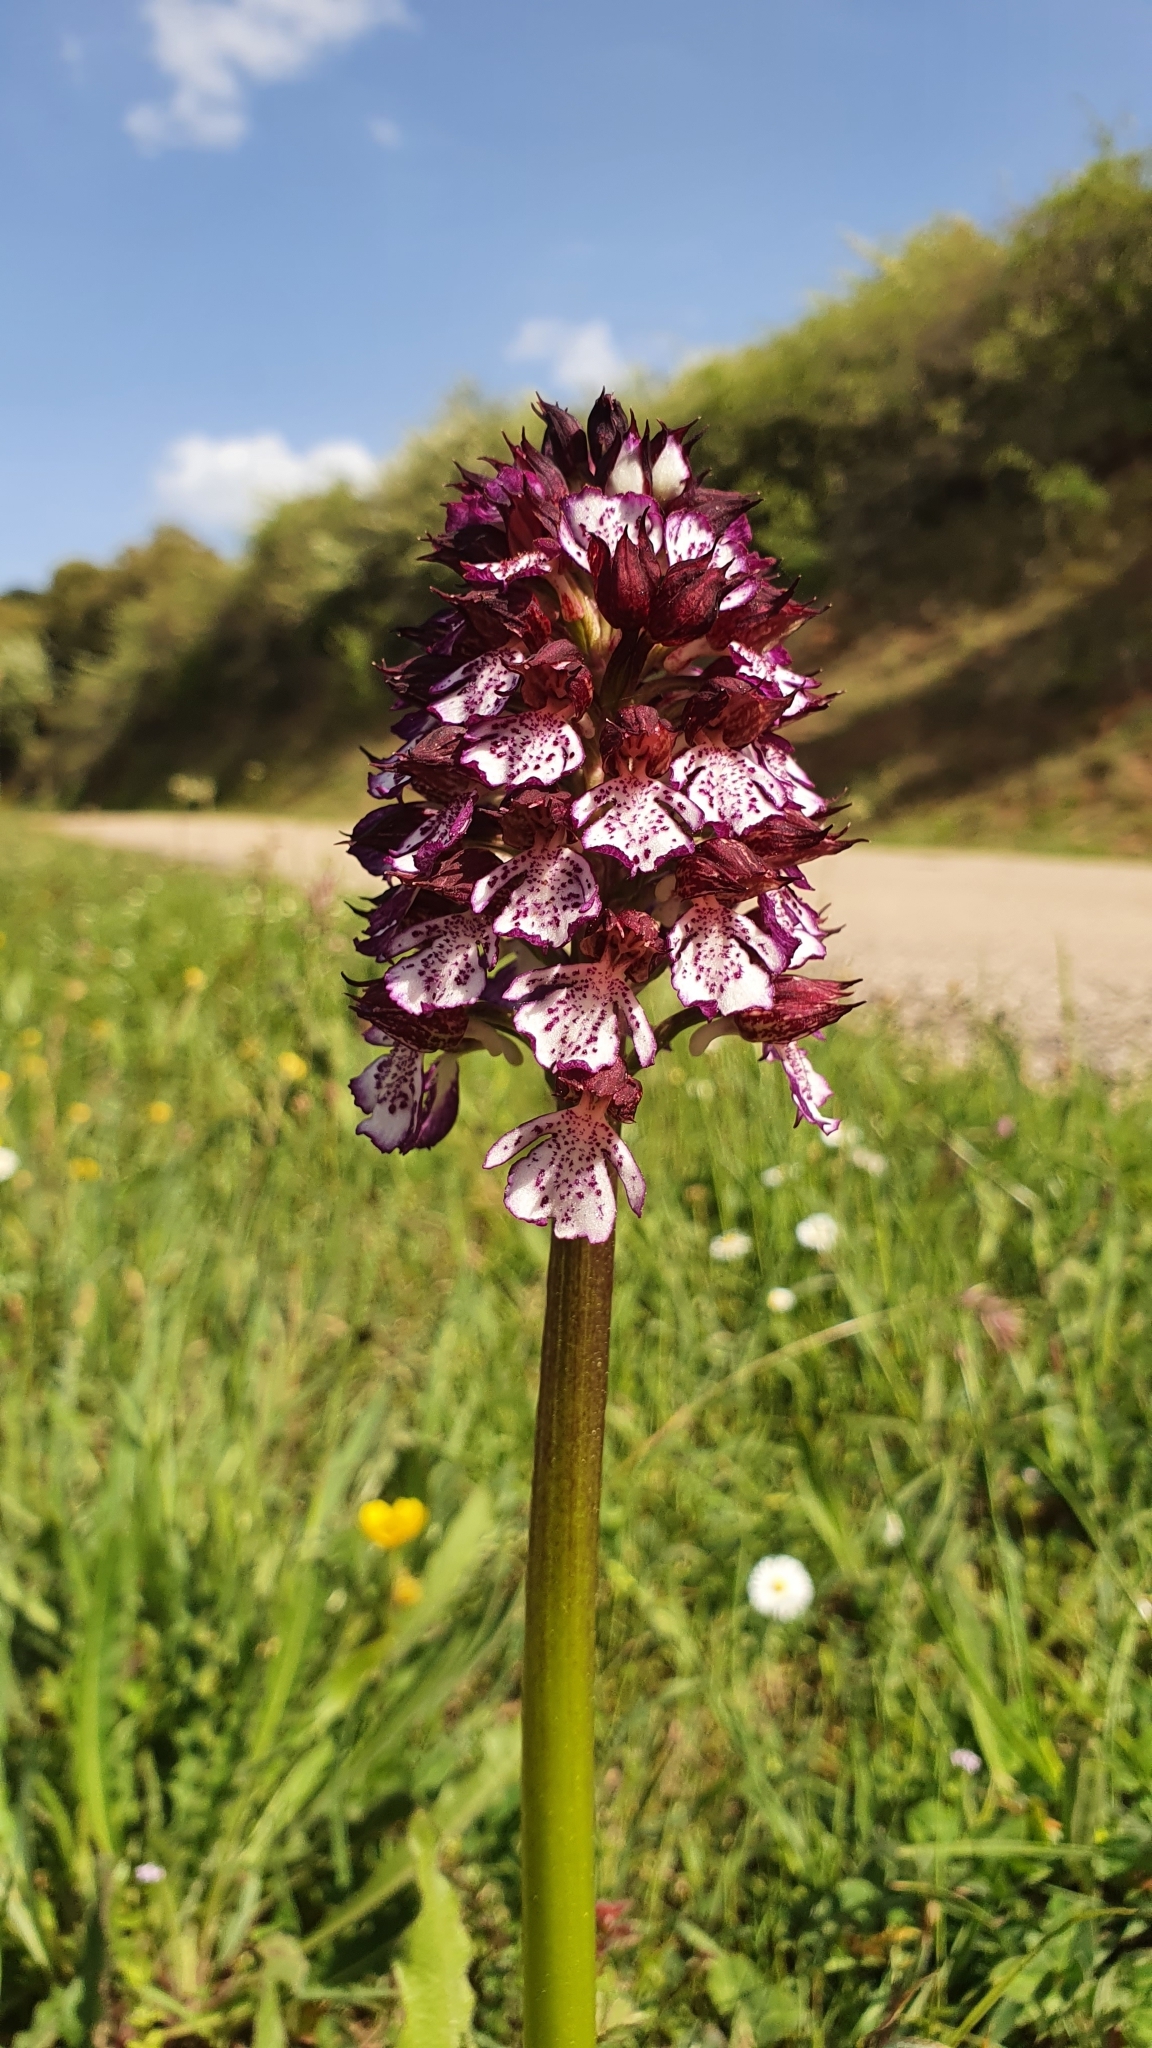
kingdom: Plantae
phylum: Tracheophyta
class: Liliopsida
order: Asparagales
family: Orchidaceae
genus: Orchis
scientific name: Orchis purpurea
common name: Lady orchid
